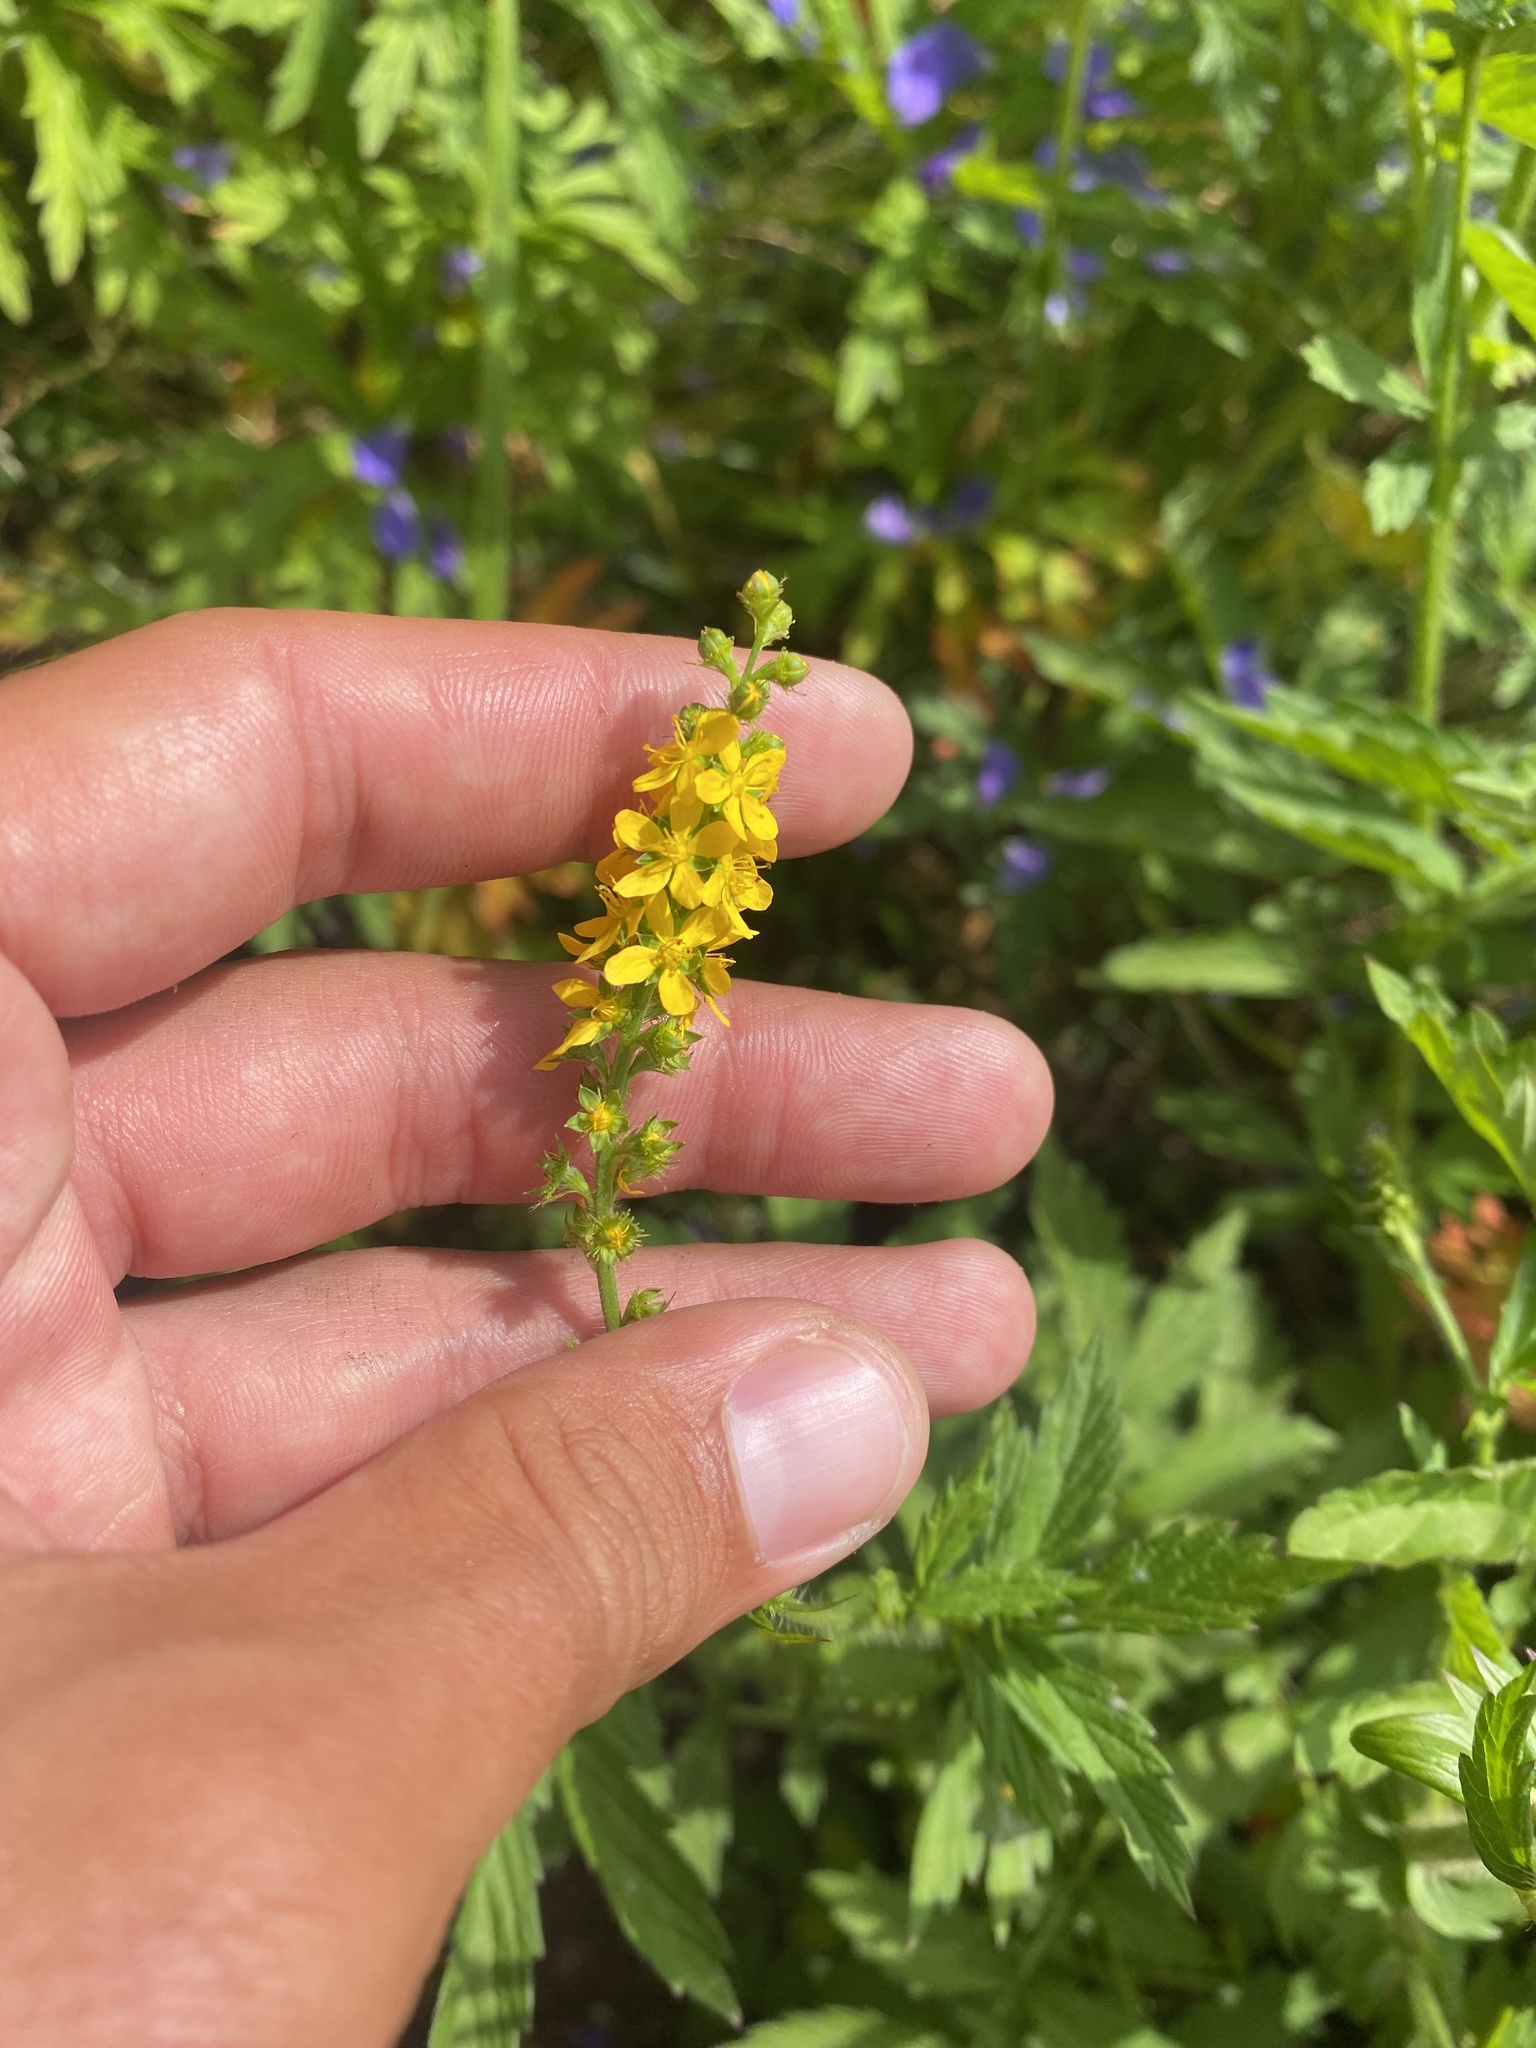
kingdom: Plantae
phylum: Tracheophyta
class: Magnoliopsida
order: Rosales
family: Rosaceae
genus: Agrimonia
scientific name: Agrimonia pilosa
